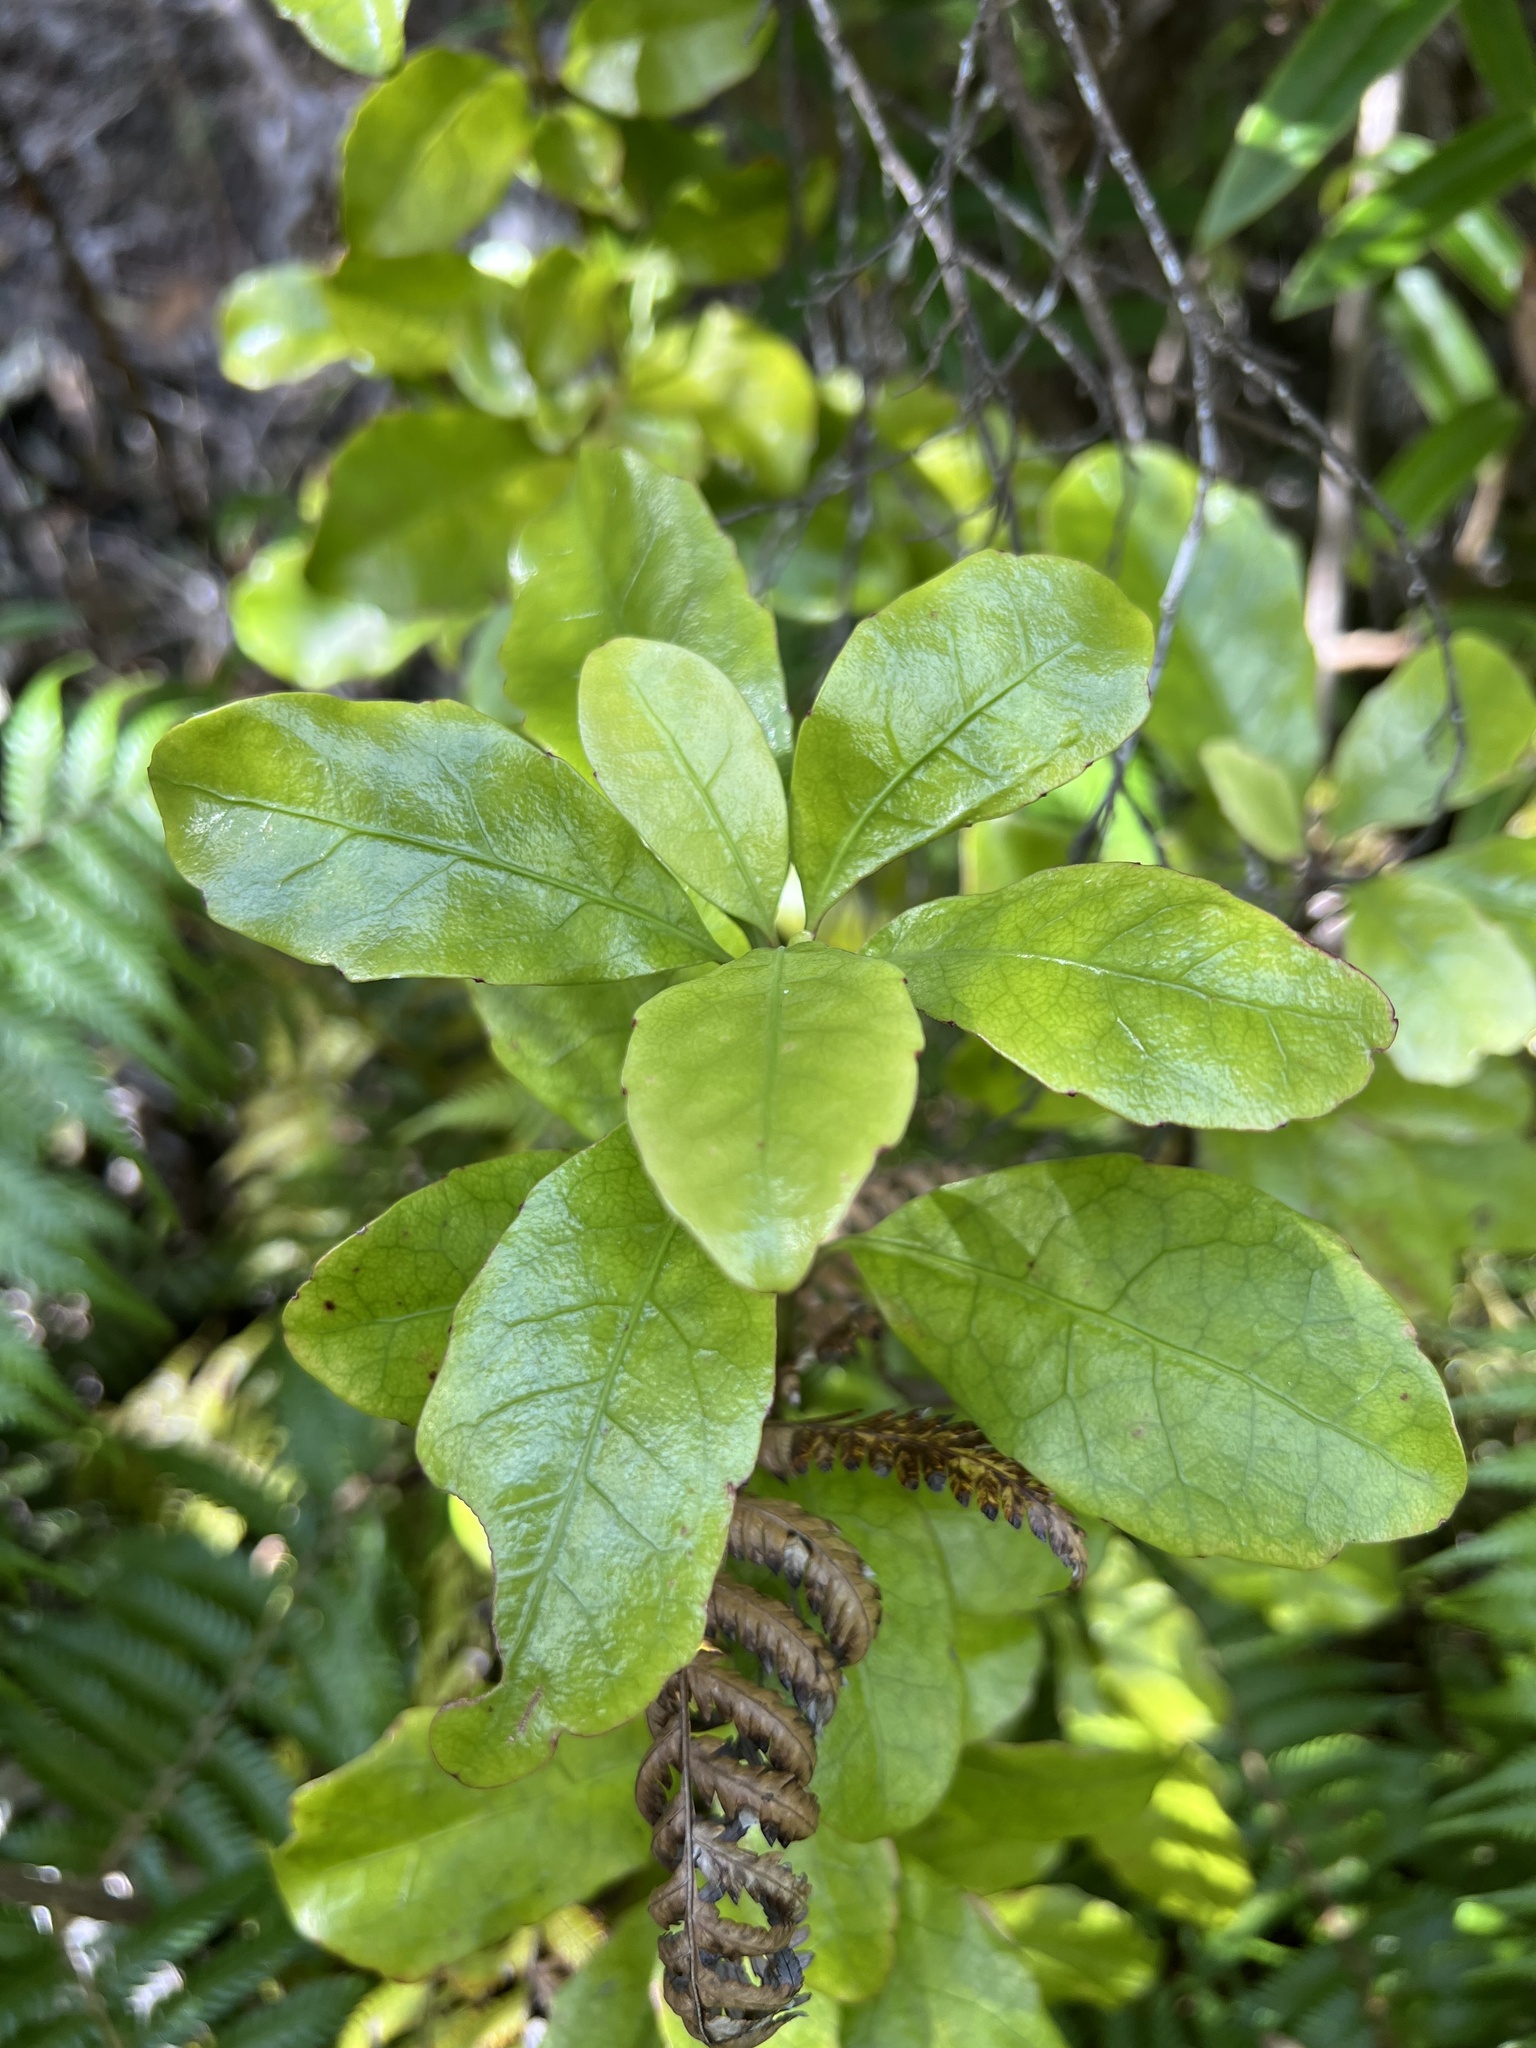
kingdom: Plantae
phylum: Tracheophyta
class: Magnoliopsida
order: Asterales
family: Alseuosmiaceae
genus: Alseuosmia
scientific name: Alseuosmia macrophylla
